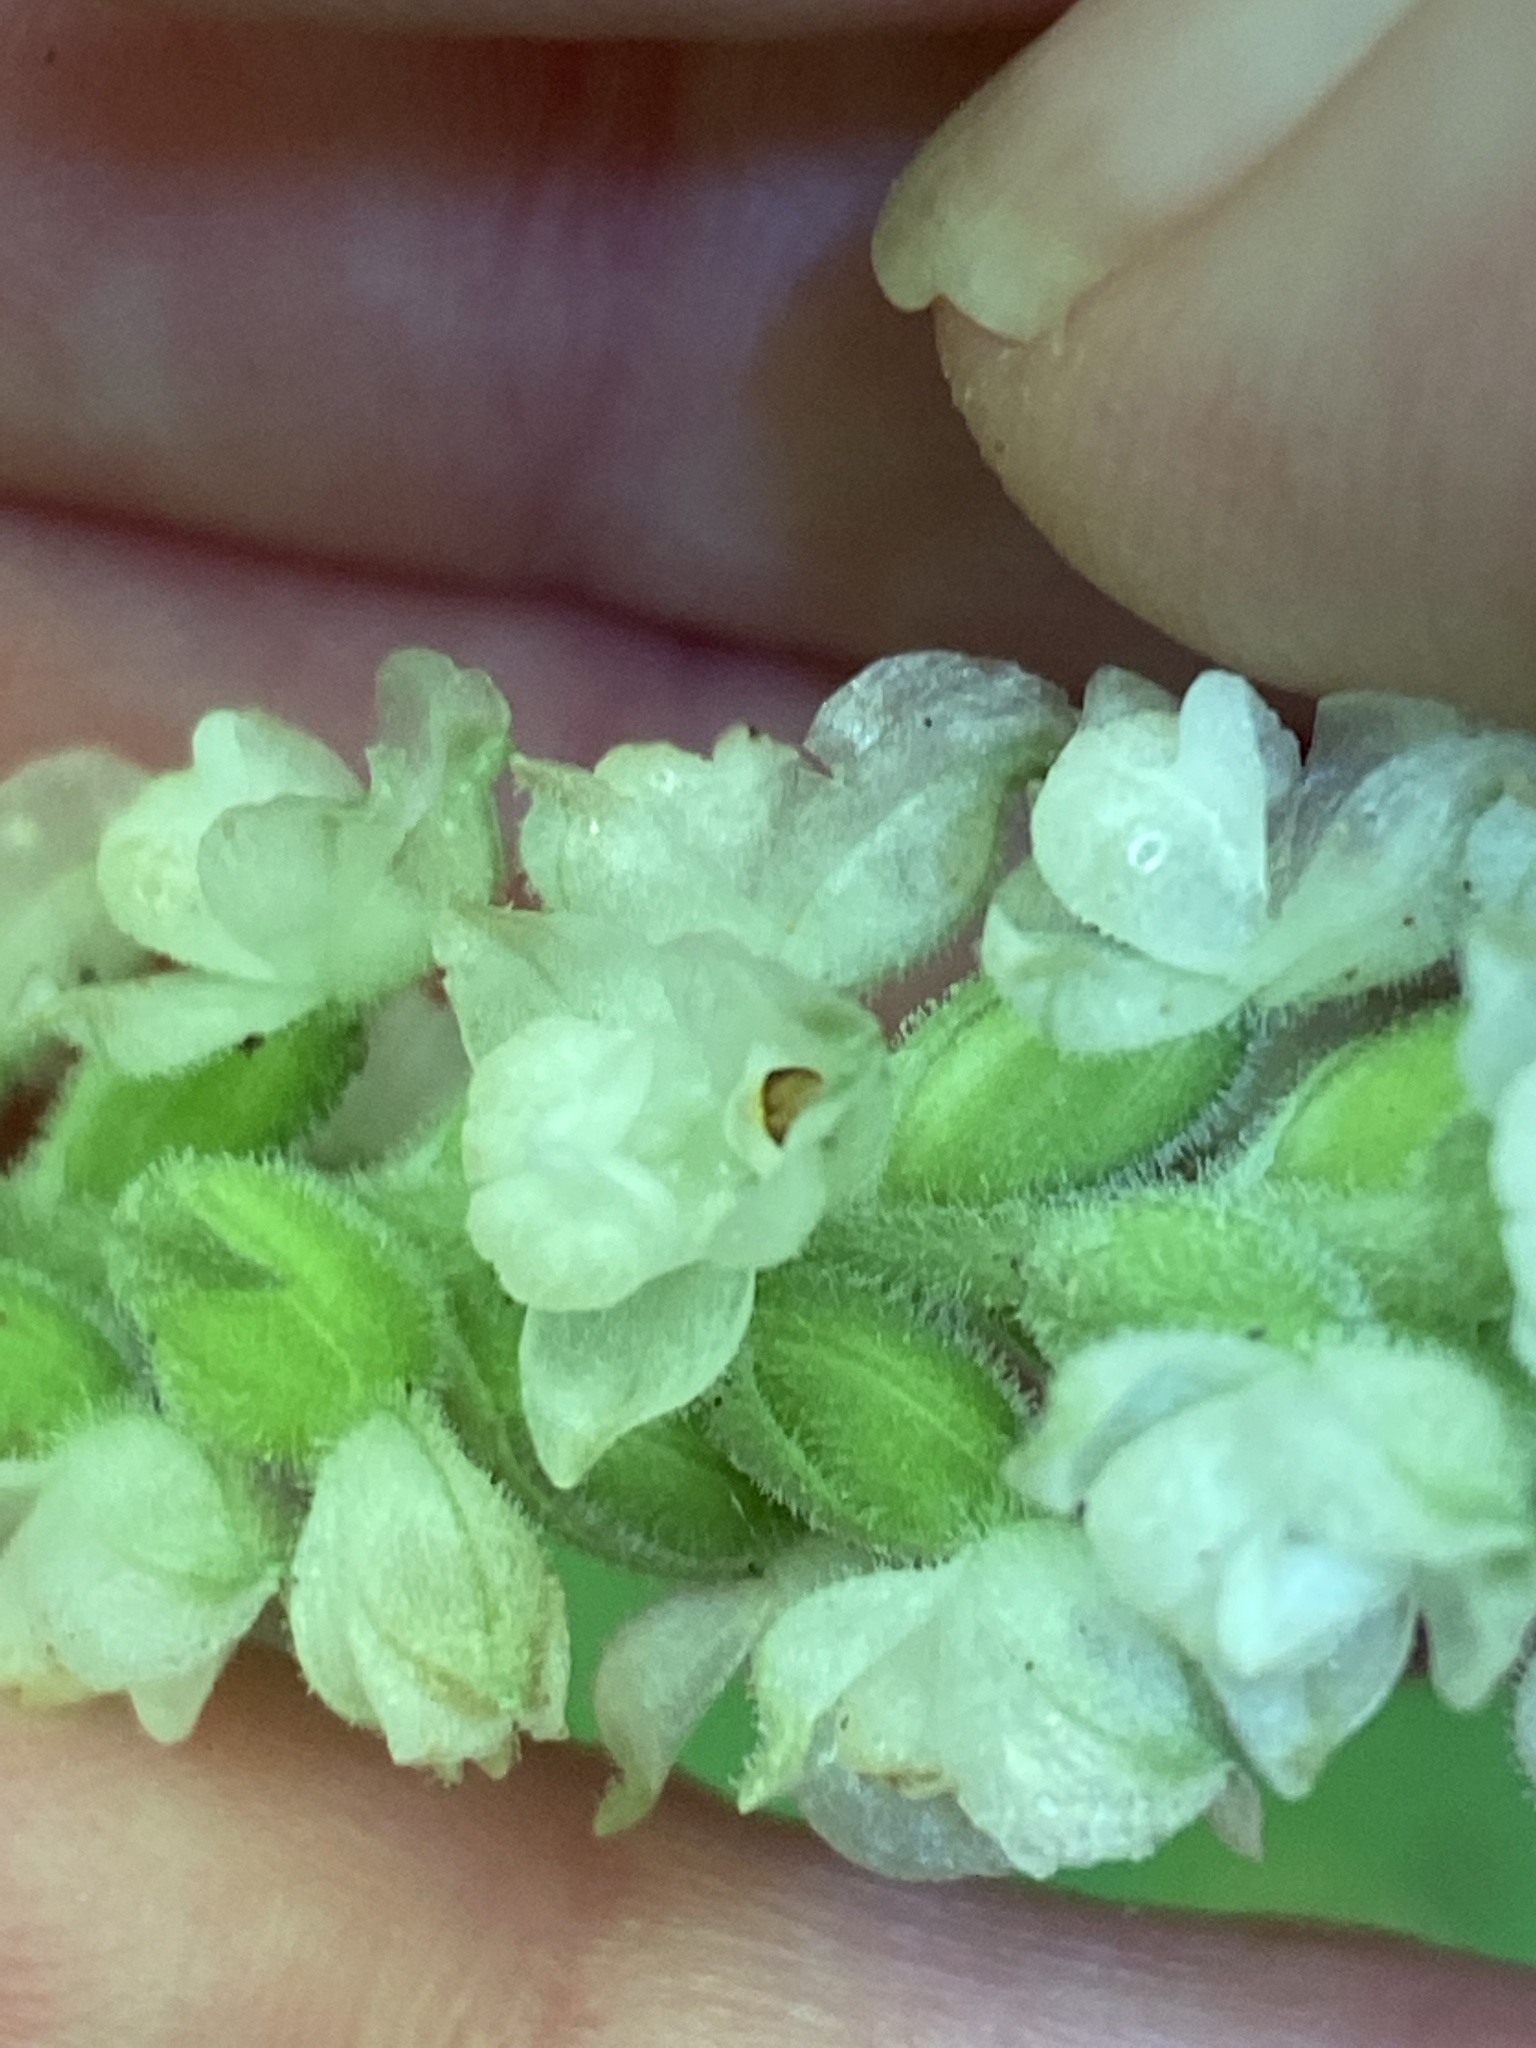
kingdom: Plantae
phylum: Tracheophyta
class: Liliopsida
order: Asparagales
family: Orchidaceae
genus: Goodyera
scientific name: Goodyera pubescens
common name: Downy rattlesnake-plantain
